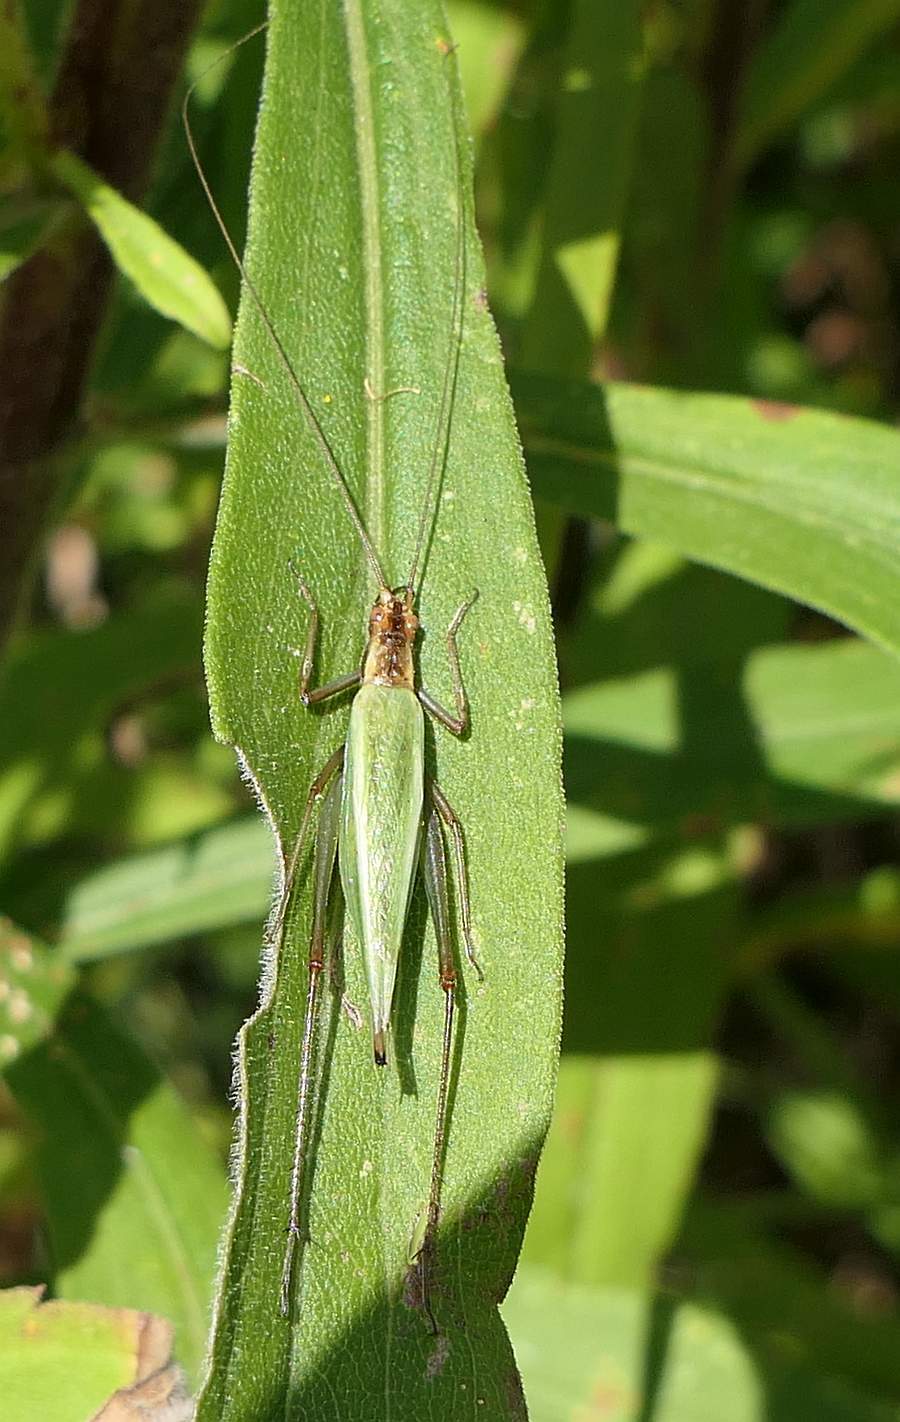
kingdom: Animalia
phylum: Arthropoda
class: Insecta
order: Orthoptera
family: Gryllidae
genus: Oecanthus
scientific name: Oecanthus pini
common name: Pine tree cricket
